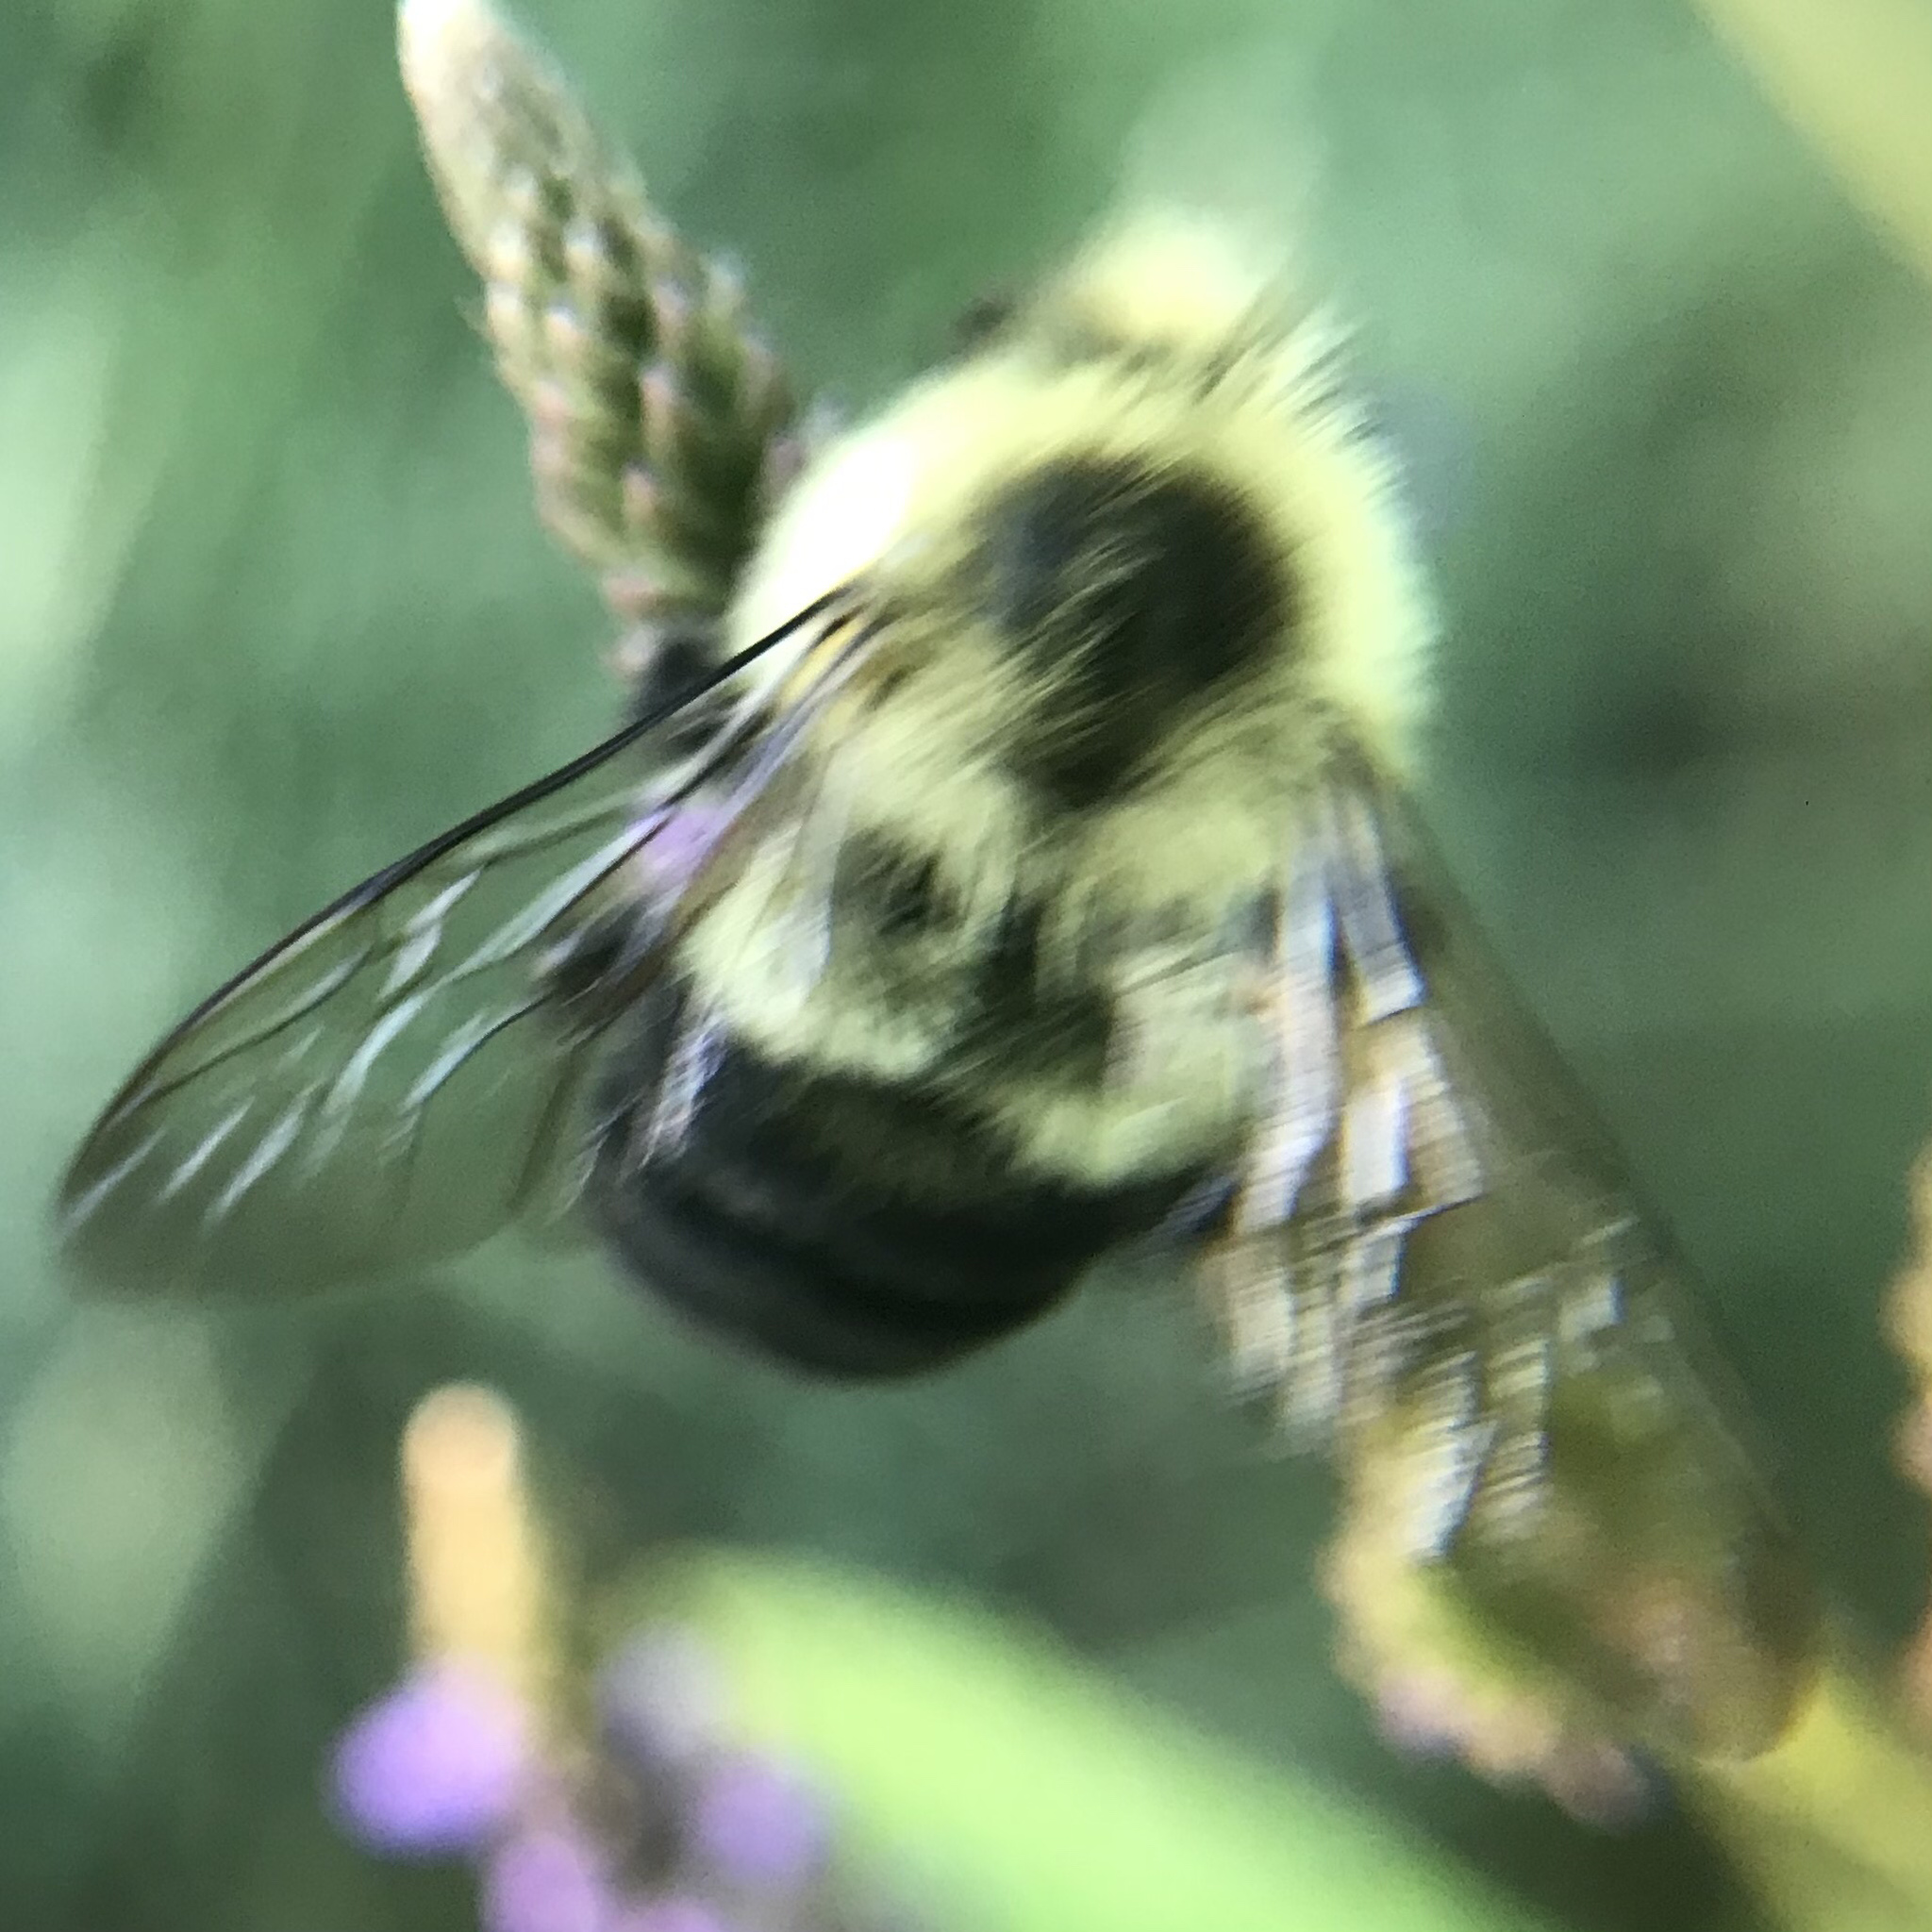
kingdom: Animalia
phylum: Arthropoda
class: Insecta
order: Hymenoptera
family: Apidae
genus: Bombus
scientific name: Bombus impatiens
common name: Common eastern bumble bee
